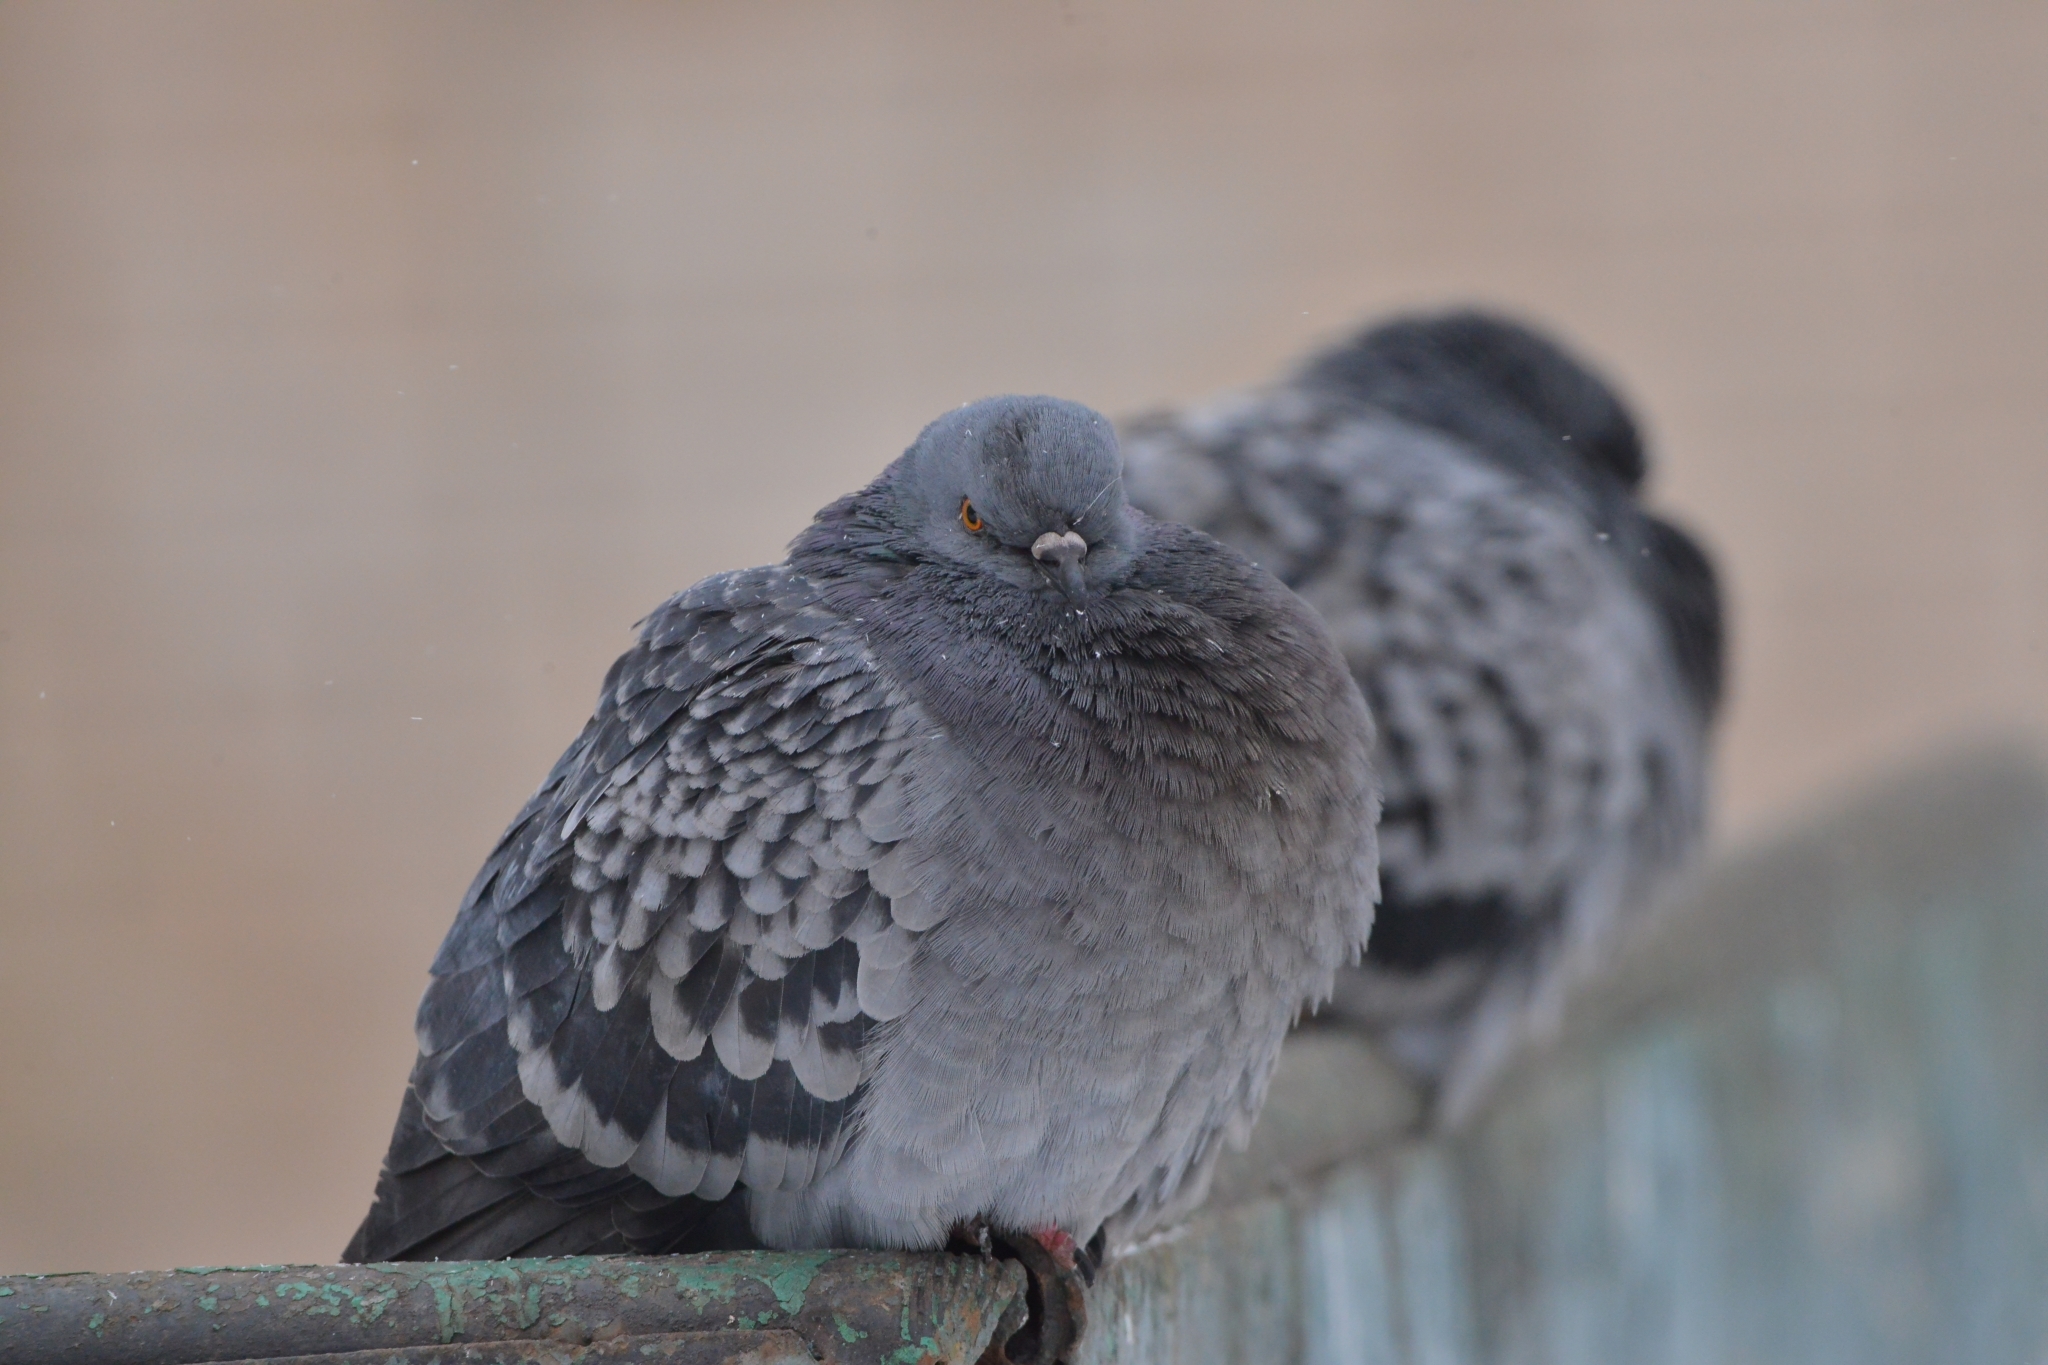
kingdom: Animalia
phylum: Chordata
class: Aves
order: Columbiformes
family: Columbidae
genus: Columba
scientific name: Columba livia
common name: Rock pigeon
